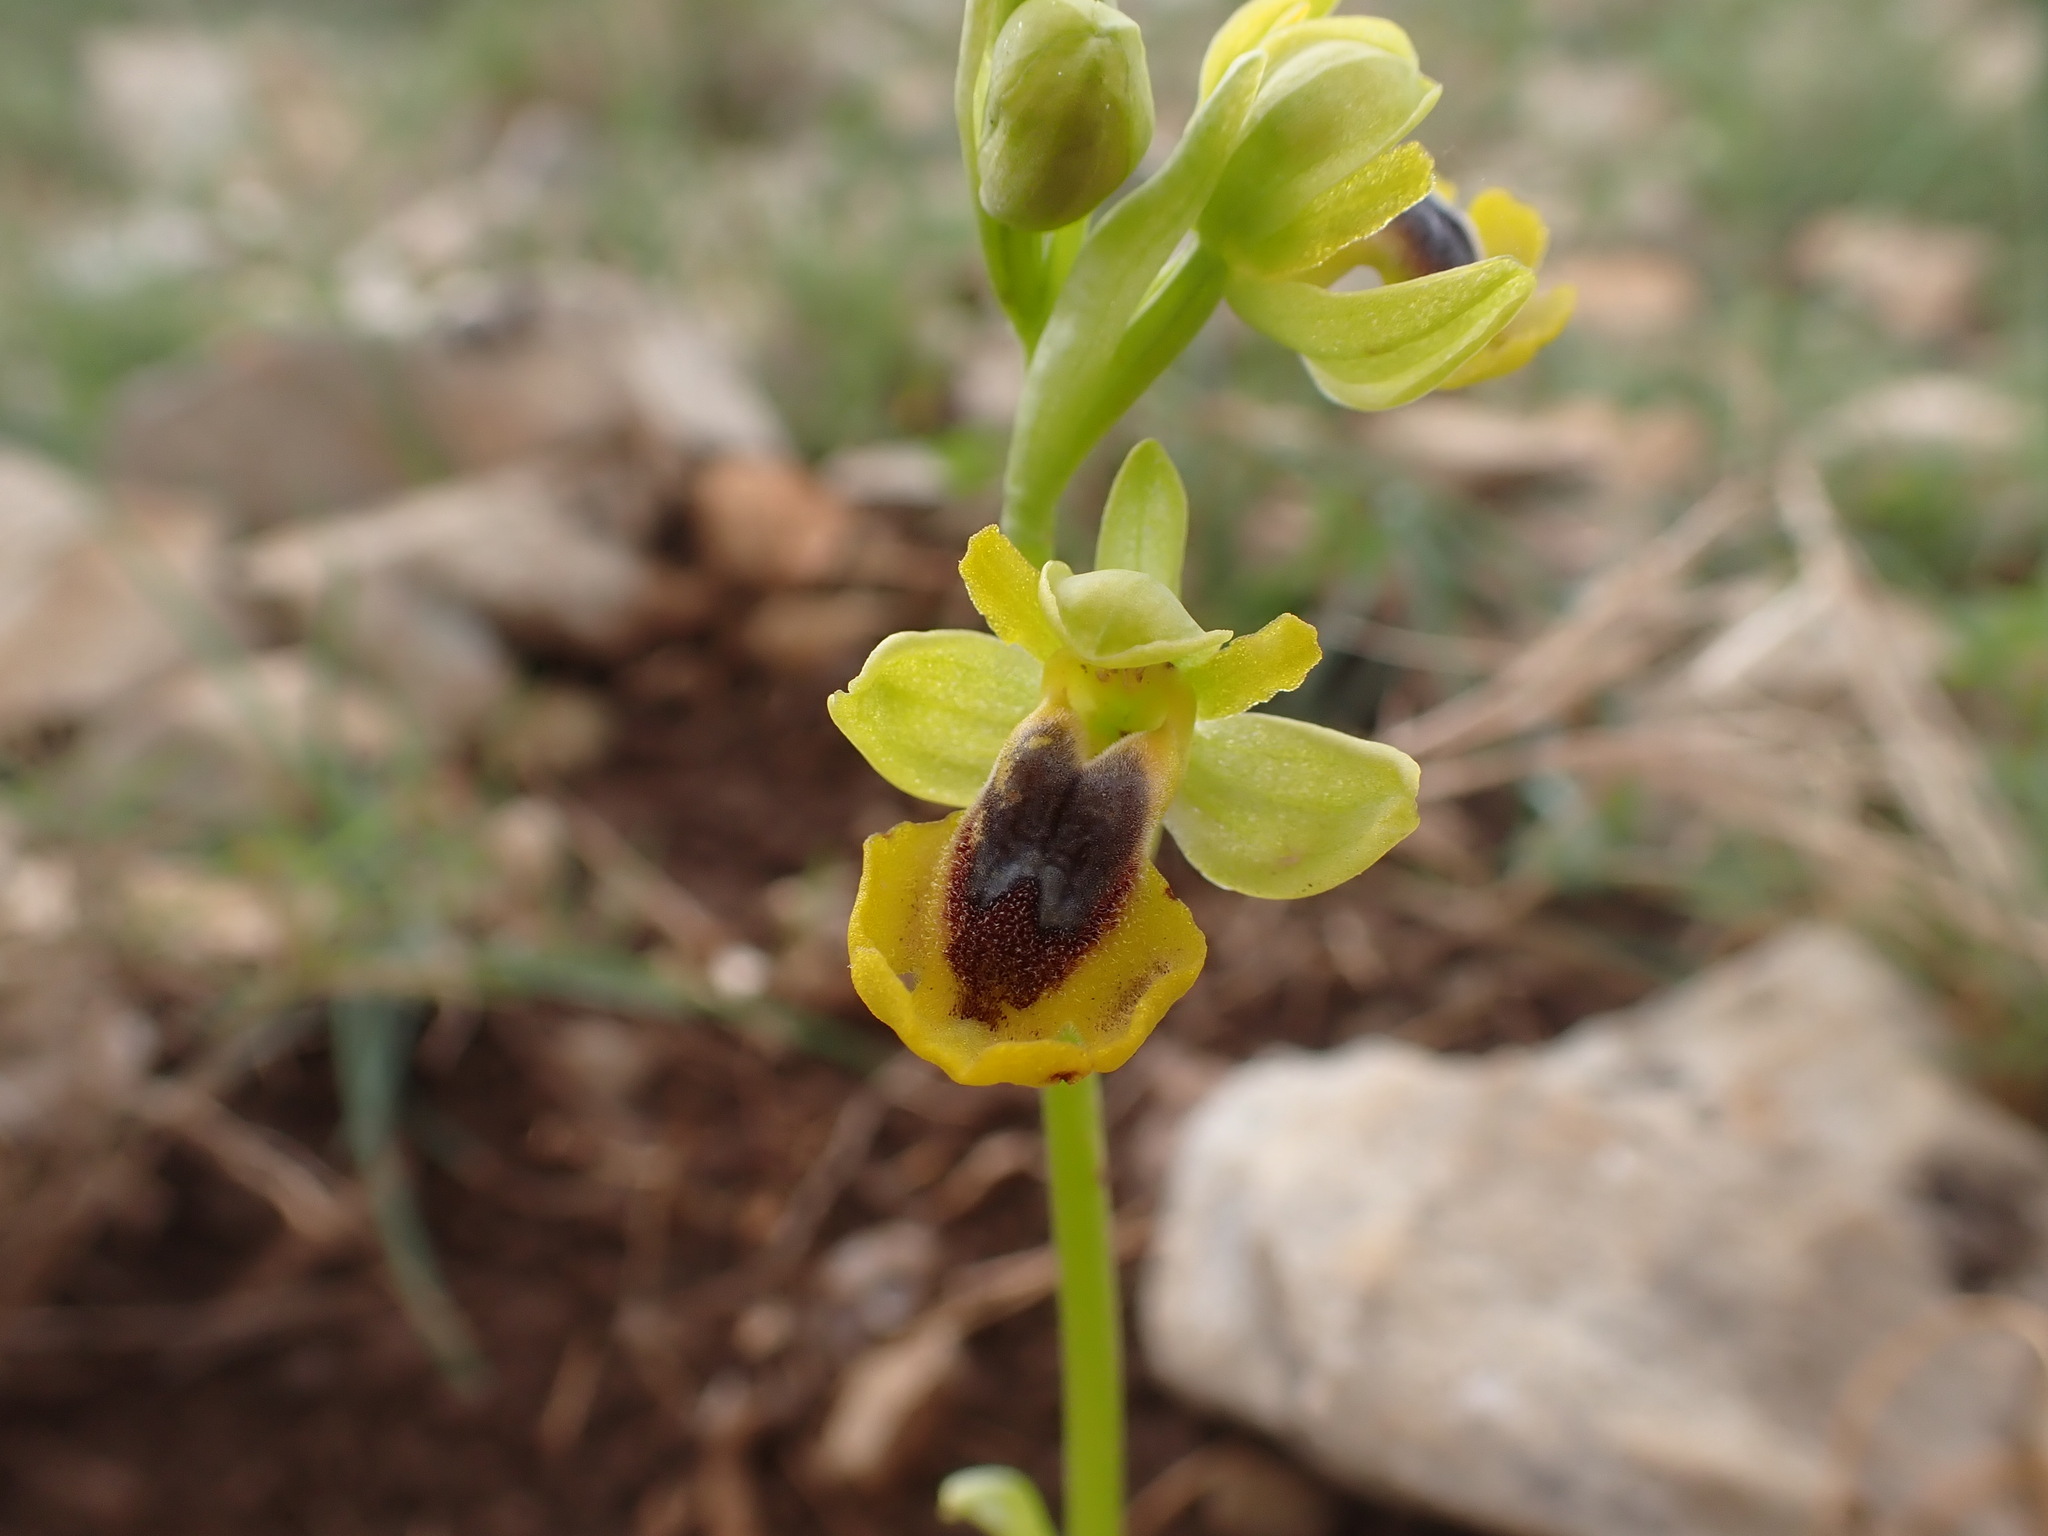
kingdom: Plantae
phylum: Tracheophyta
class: Liliopsida
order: Asparagales
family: Orchidaceae
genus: Ophrys
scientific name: Ophrys lutea
